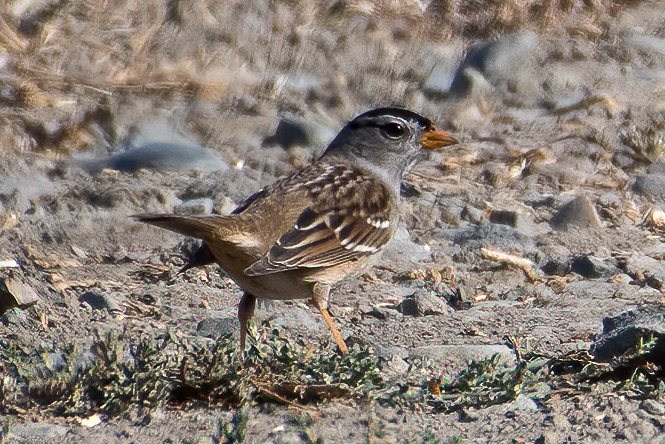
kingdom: Animalia
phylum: Chordata
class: Aves
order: Passeriformes
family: Passerellidae
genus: Zonotrichia
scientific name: Zonotrichia leucophrys
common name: White-crowned sparrow
